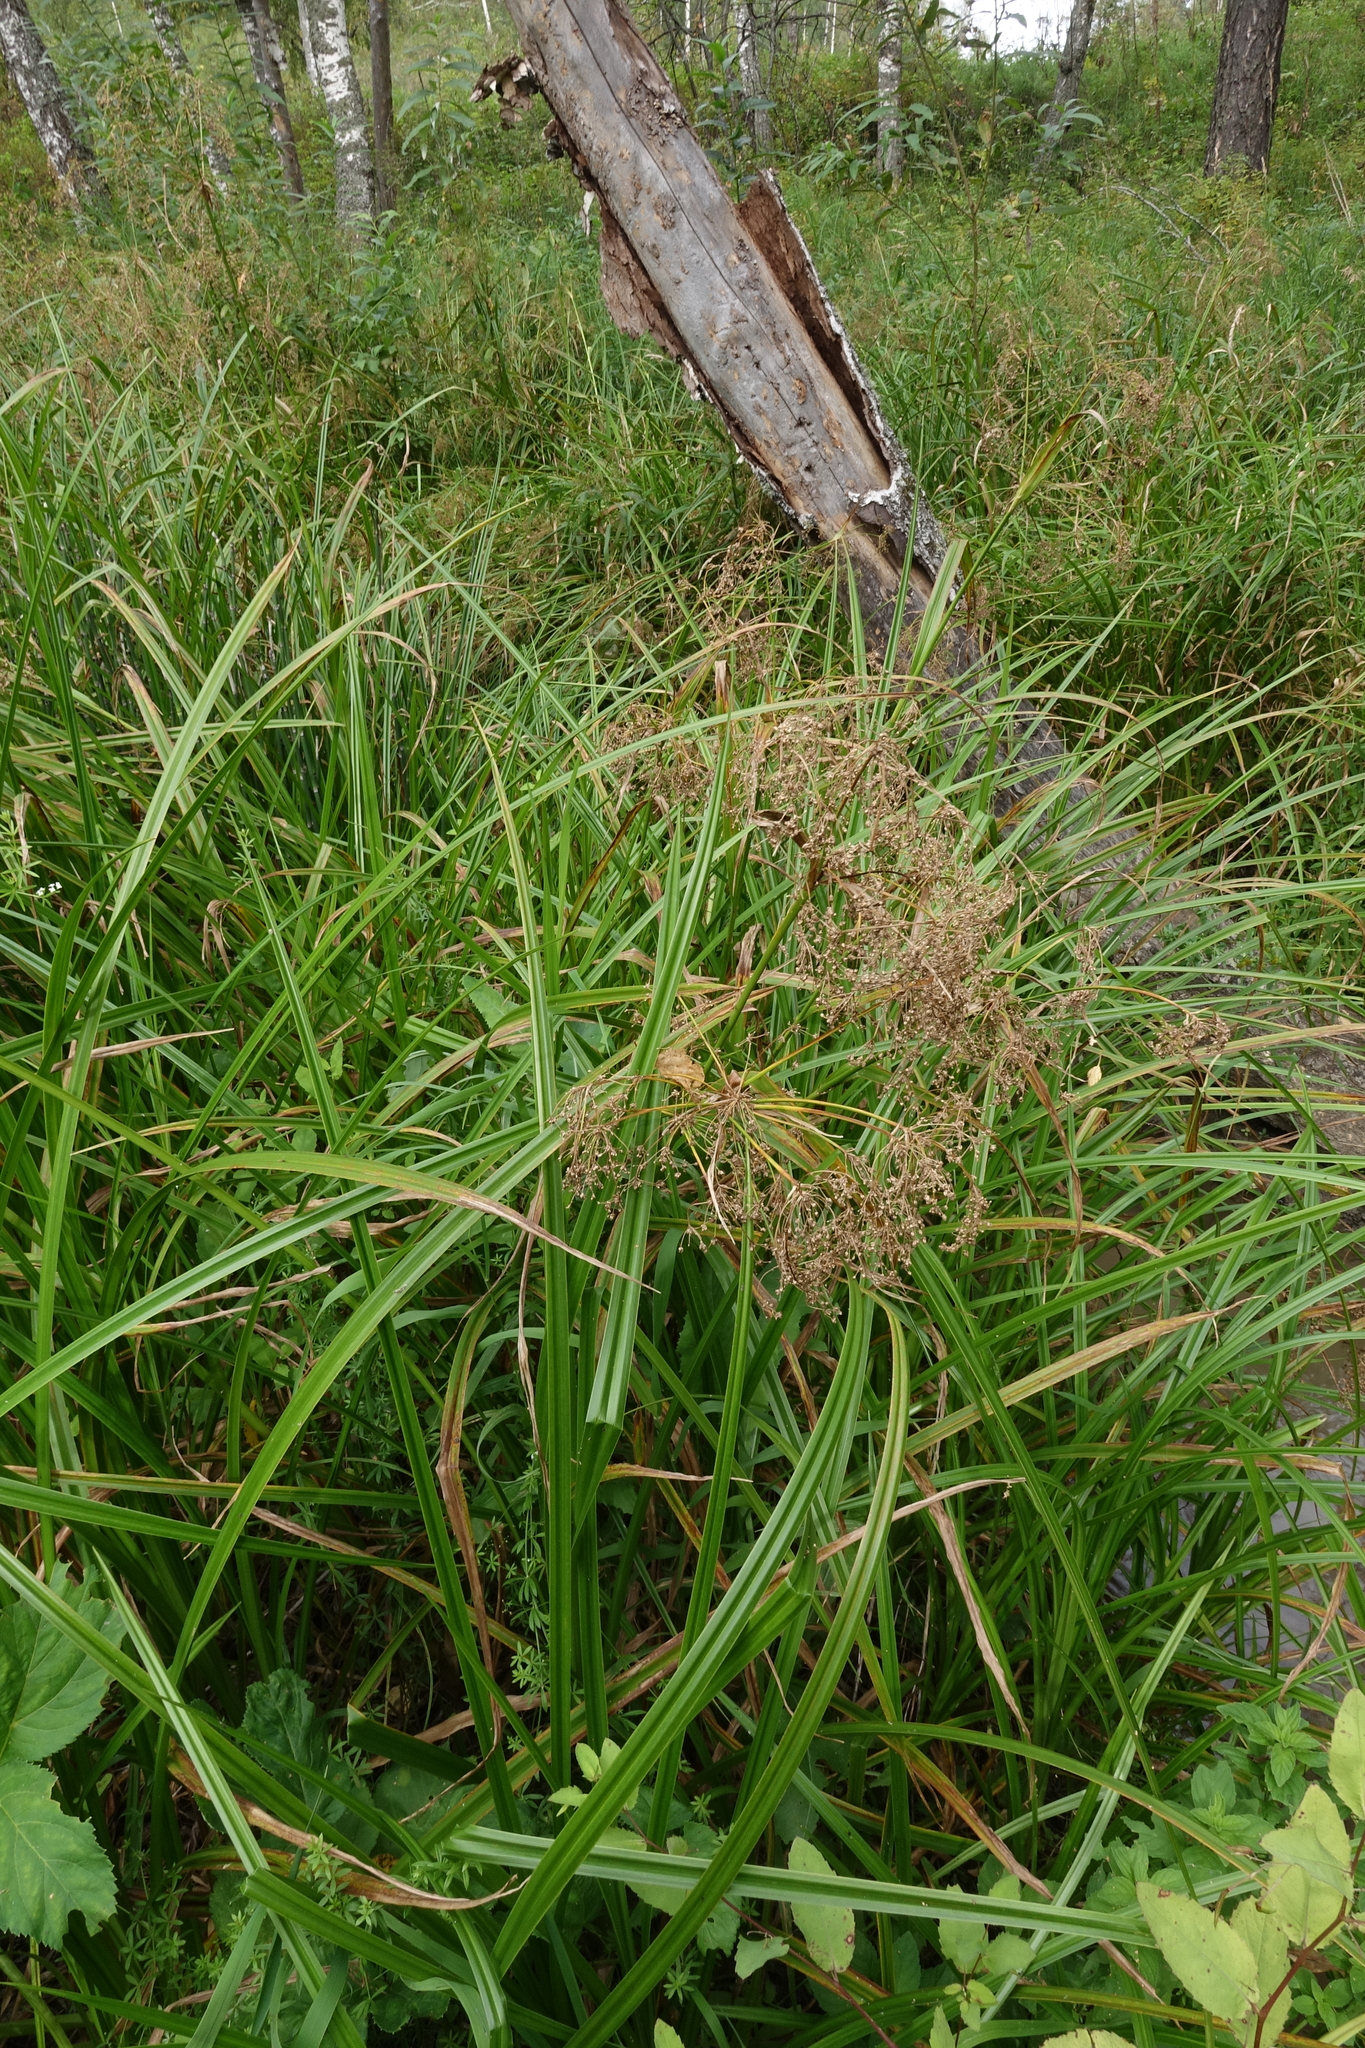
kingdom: Plantae
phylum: Tracheophyta
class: Liliopsida
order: Poales
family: Cyperaceae
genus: Scirpus
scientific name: Scirpus sylvaticus
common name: Wood club-rush
